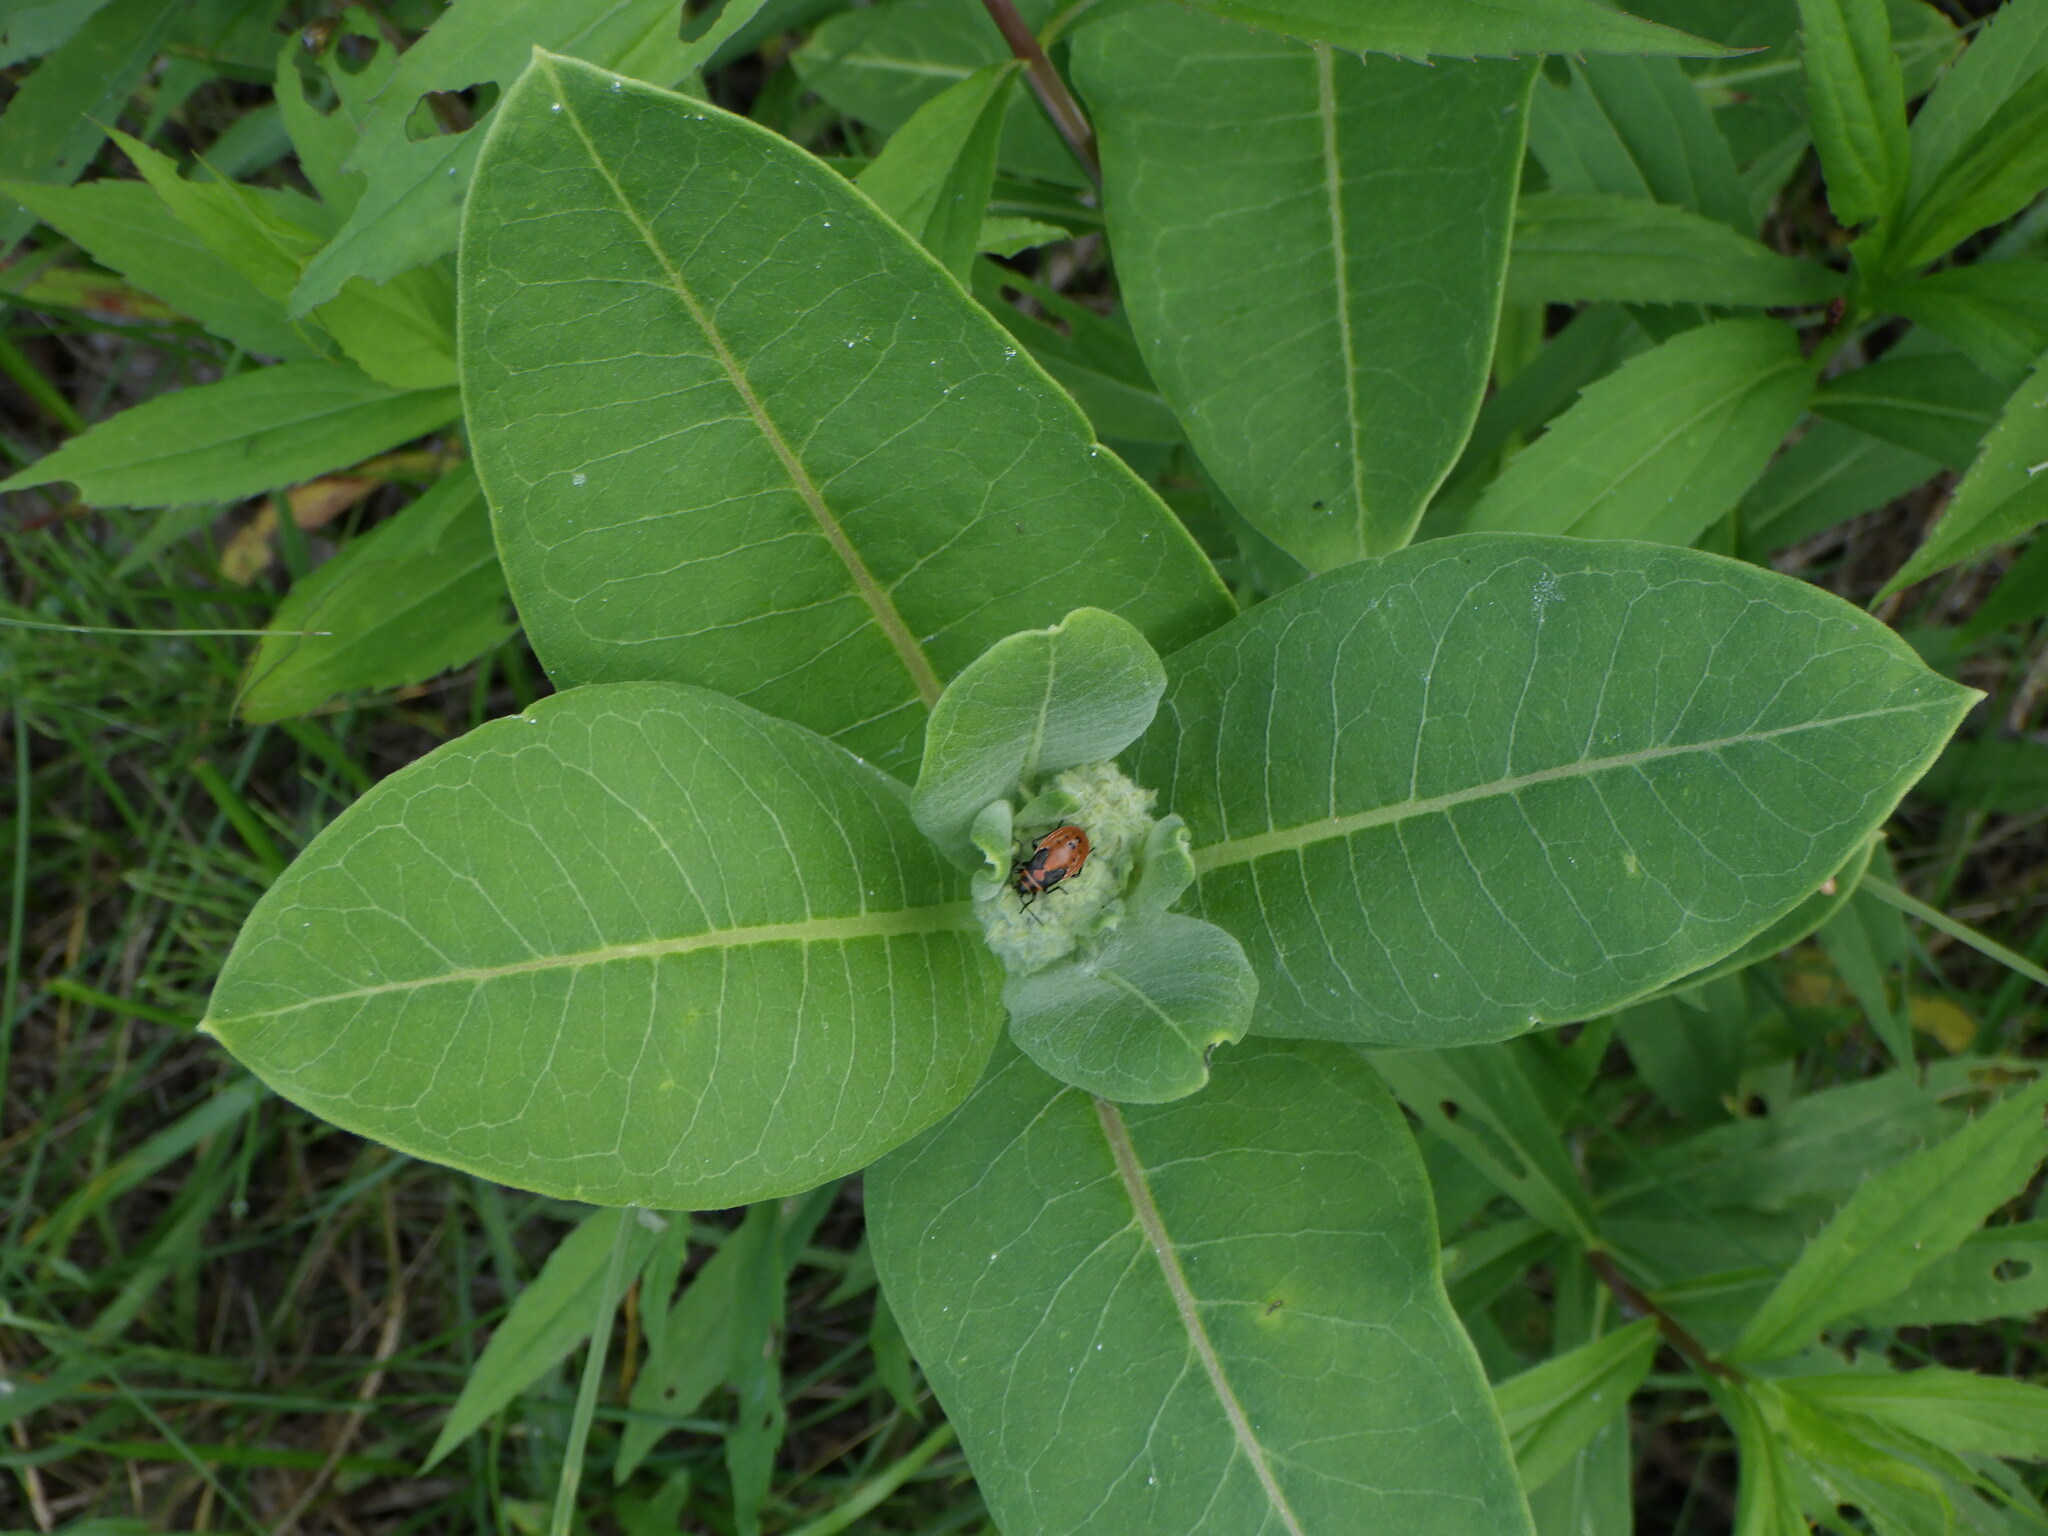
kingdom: Plantae
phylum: Tracheophyta
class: Magnoliopsida
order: Gentianales
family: Apocynaceae
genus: Asclepias
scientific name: Asclepias syriaca
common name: Common milkweed
